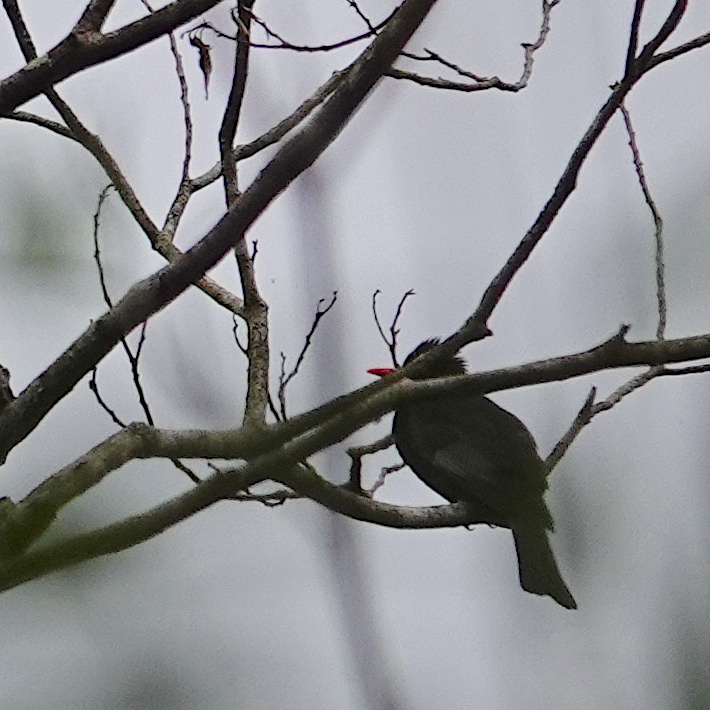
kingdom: Animalia
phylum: Chordata
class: Aves
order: Passeriformes
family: Pycnonotidae
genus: Hypsipetes
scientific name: Hypsipetes leucocephalus
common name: Black bulbul
